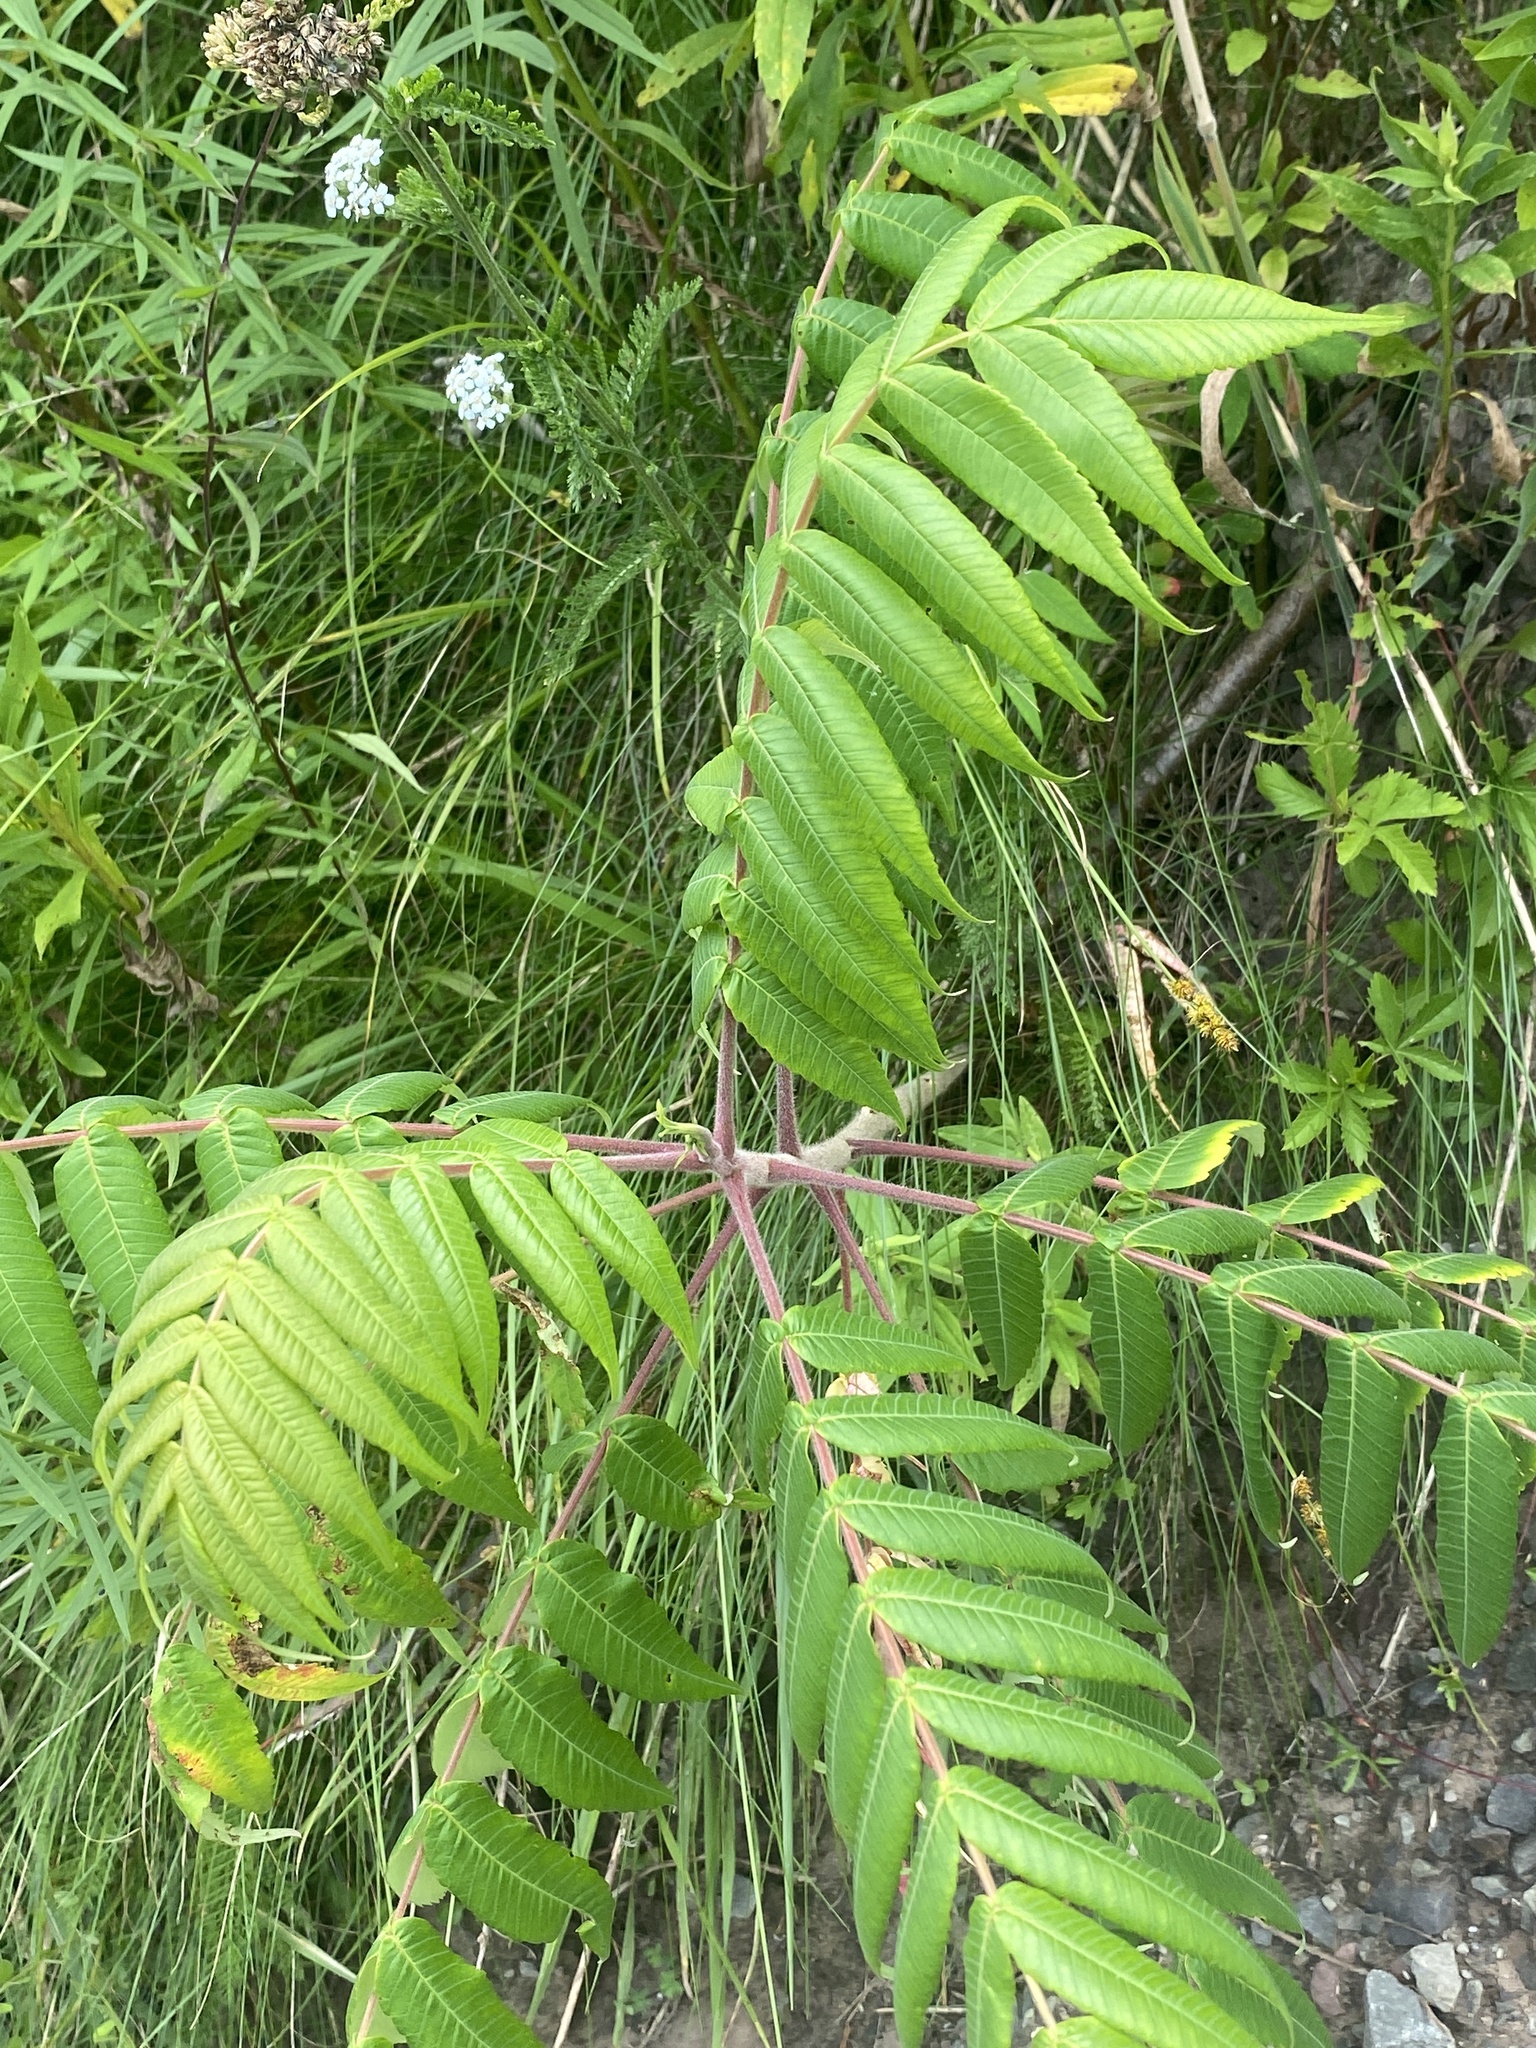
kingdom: Plantae
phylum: Tracheophyta
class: Magnoliopsida
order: Sapindales
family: Anacardiaceae
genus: Rhus
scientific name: Rhus typhina
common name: Staghorn sumac
